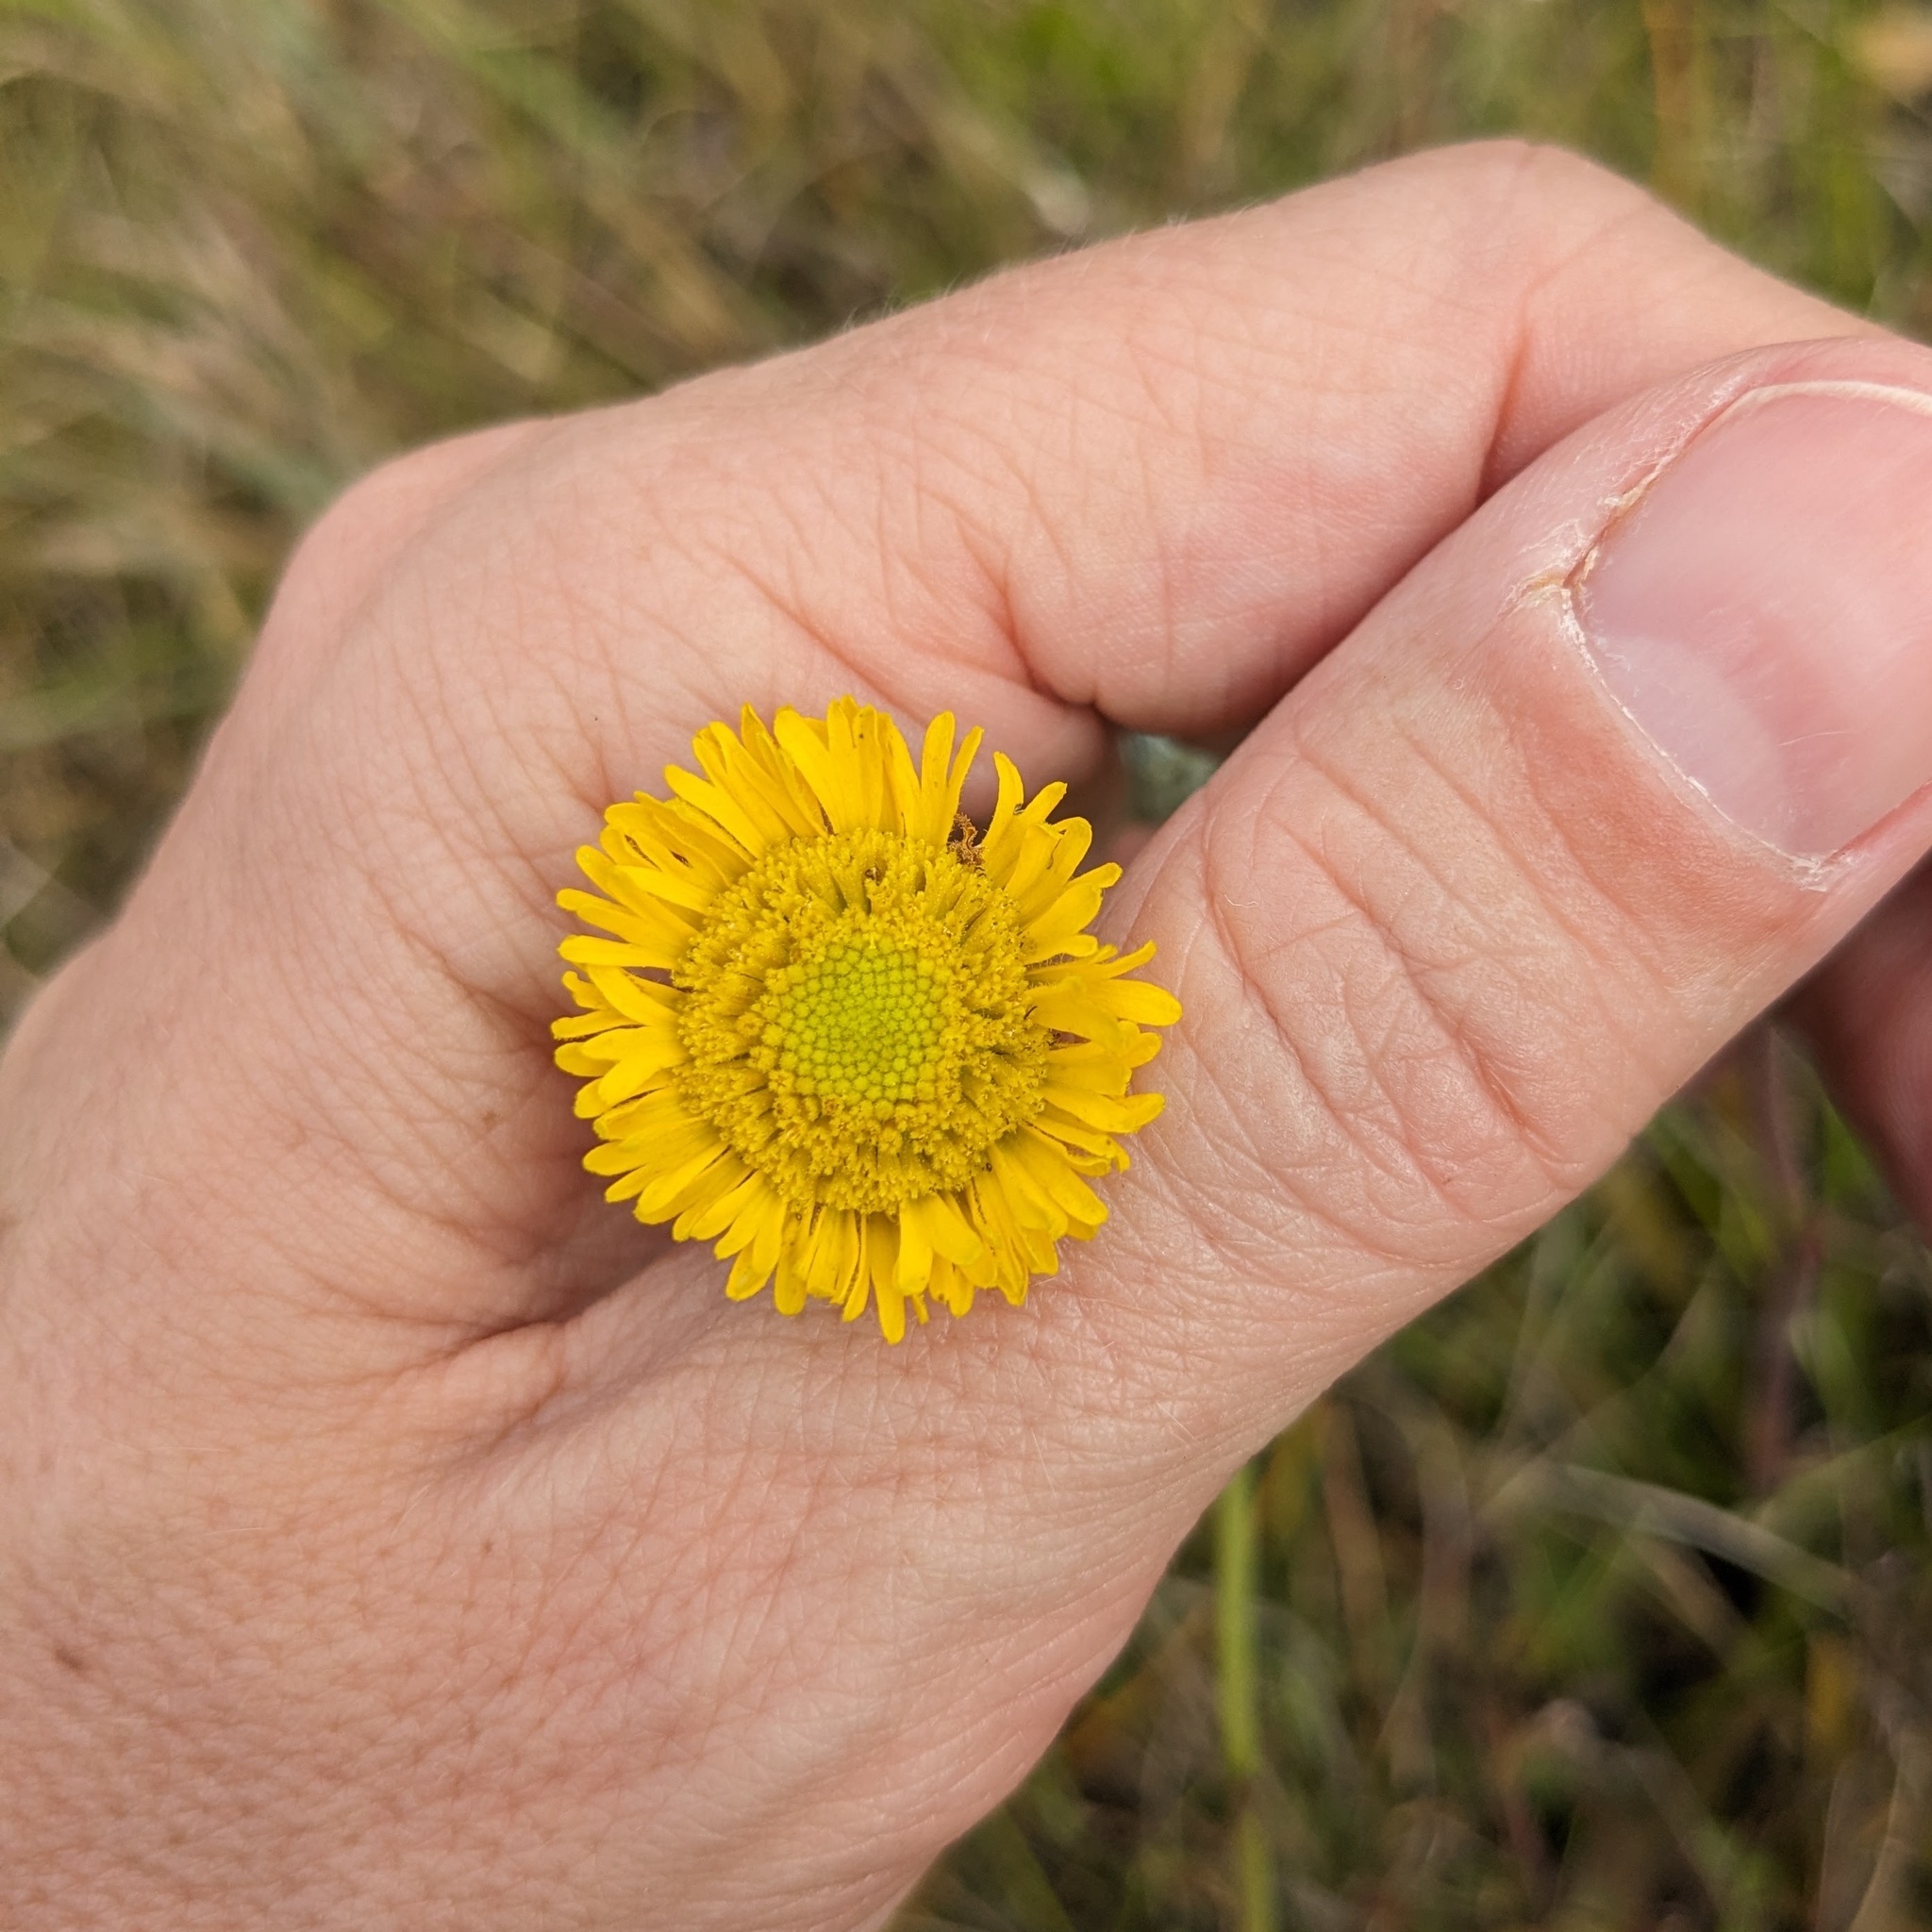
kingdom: Plantae
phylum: Tracheophyta
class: Magnoliopsida
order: Asterales
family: Asteraceae
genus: Helenium
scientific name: Helenium pinnatifidum
